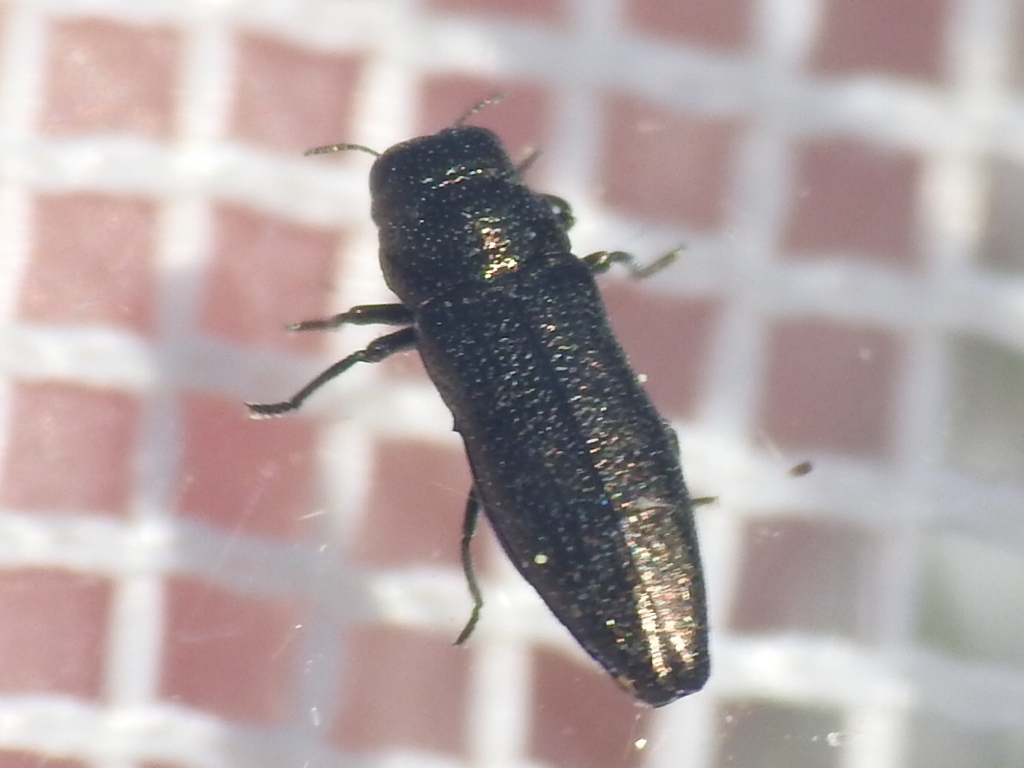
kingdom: Animalia
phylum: Arthropoda
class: Insecta
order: Coleoptera
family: Buprestidae
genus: Taphrocerus
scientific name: Taphrocerus agriloides
